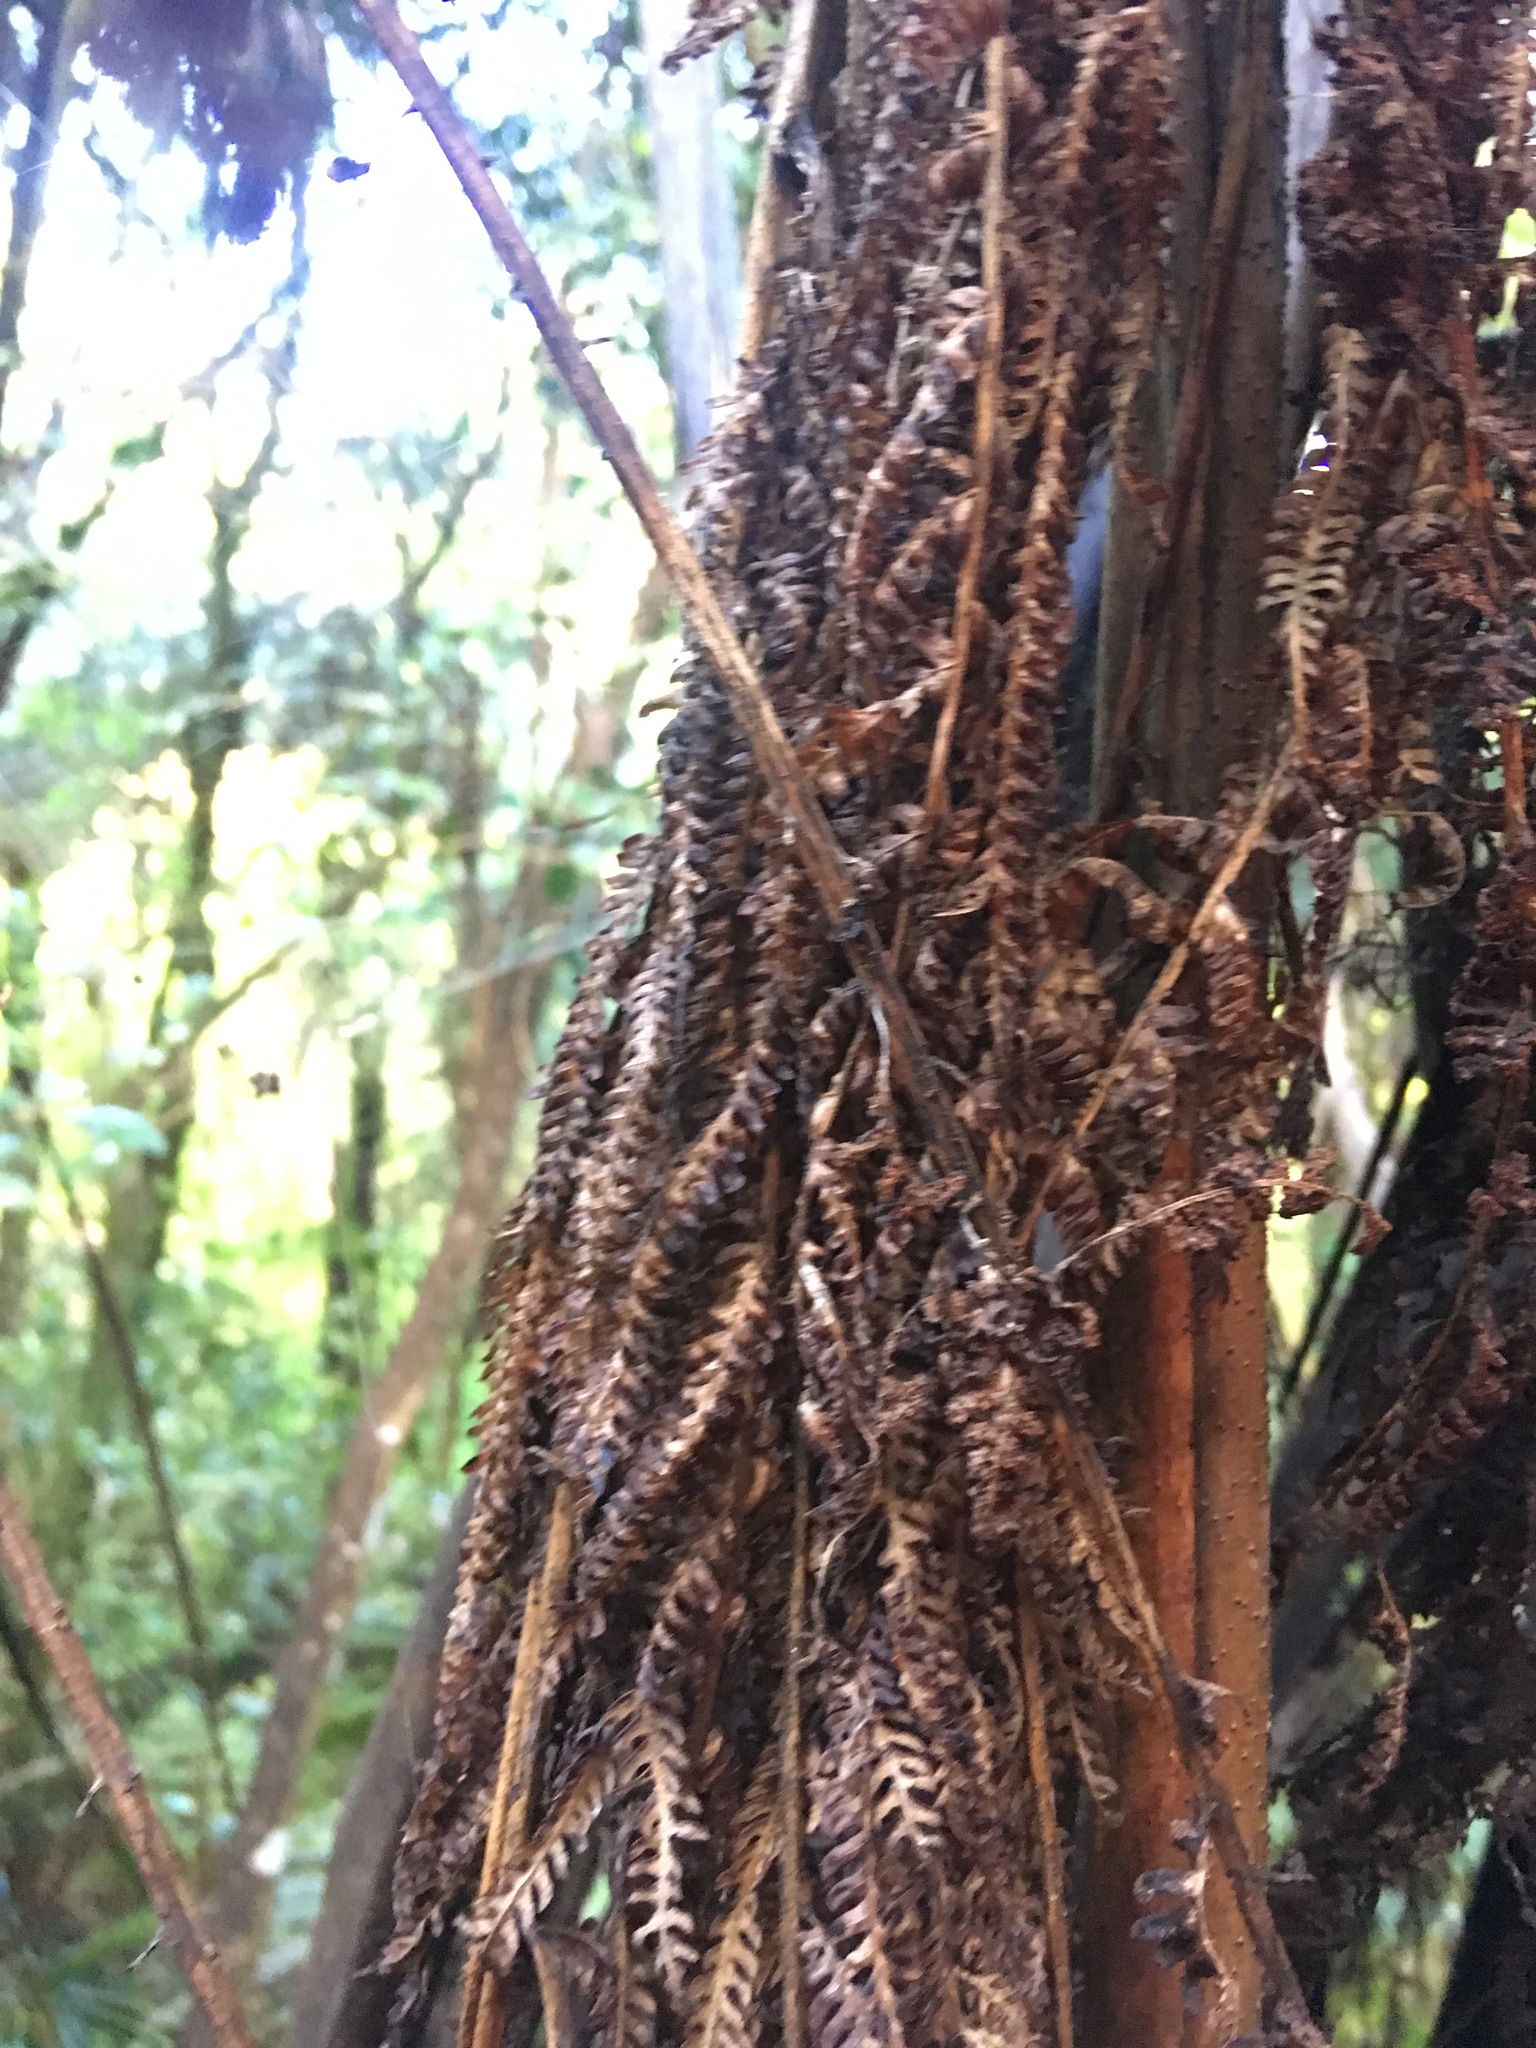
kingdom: Plantae
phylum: Tracheophyta
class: Polypodiopsida
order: Cyatheales
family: Cyatheaceae
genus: Sphaeropteris
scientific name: Sphaeropteris medullaris
